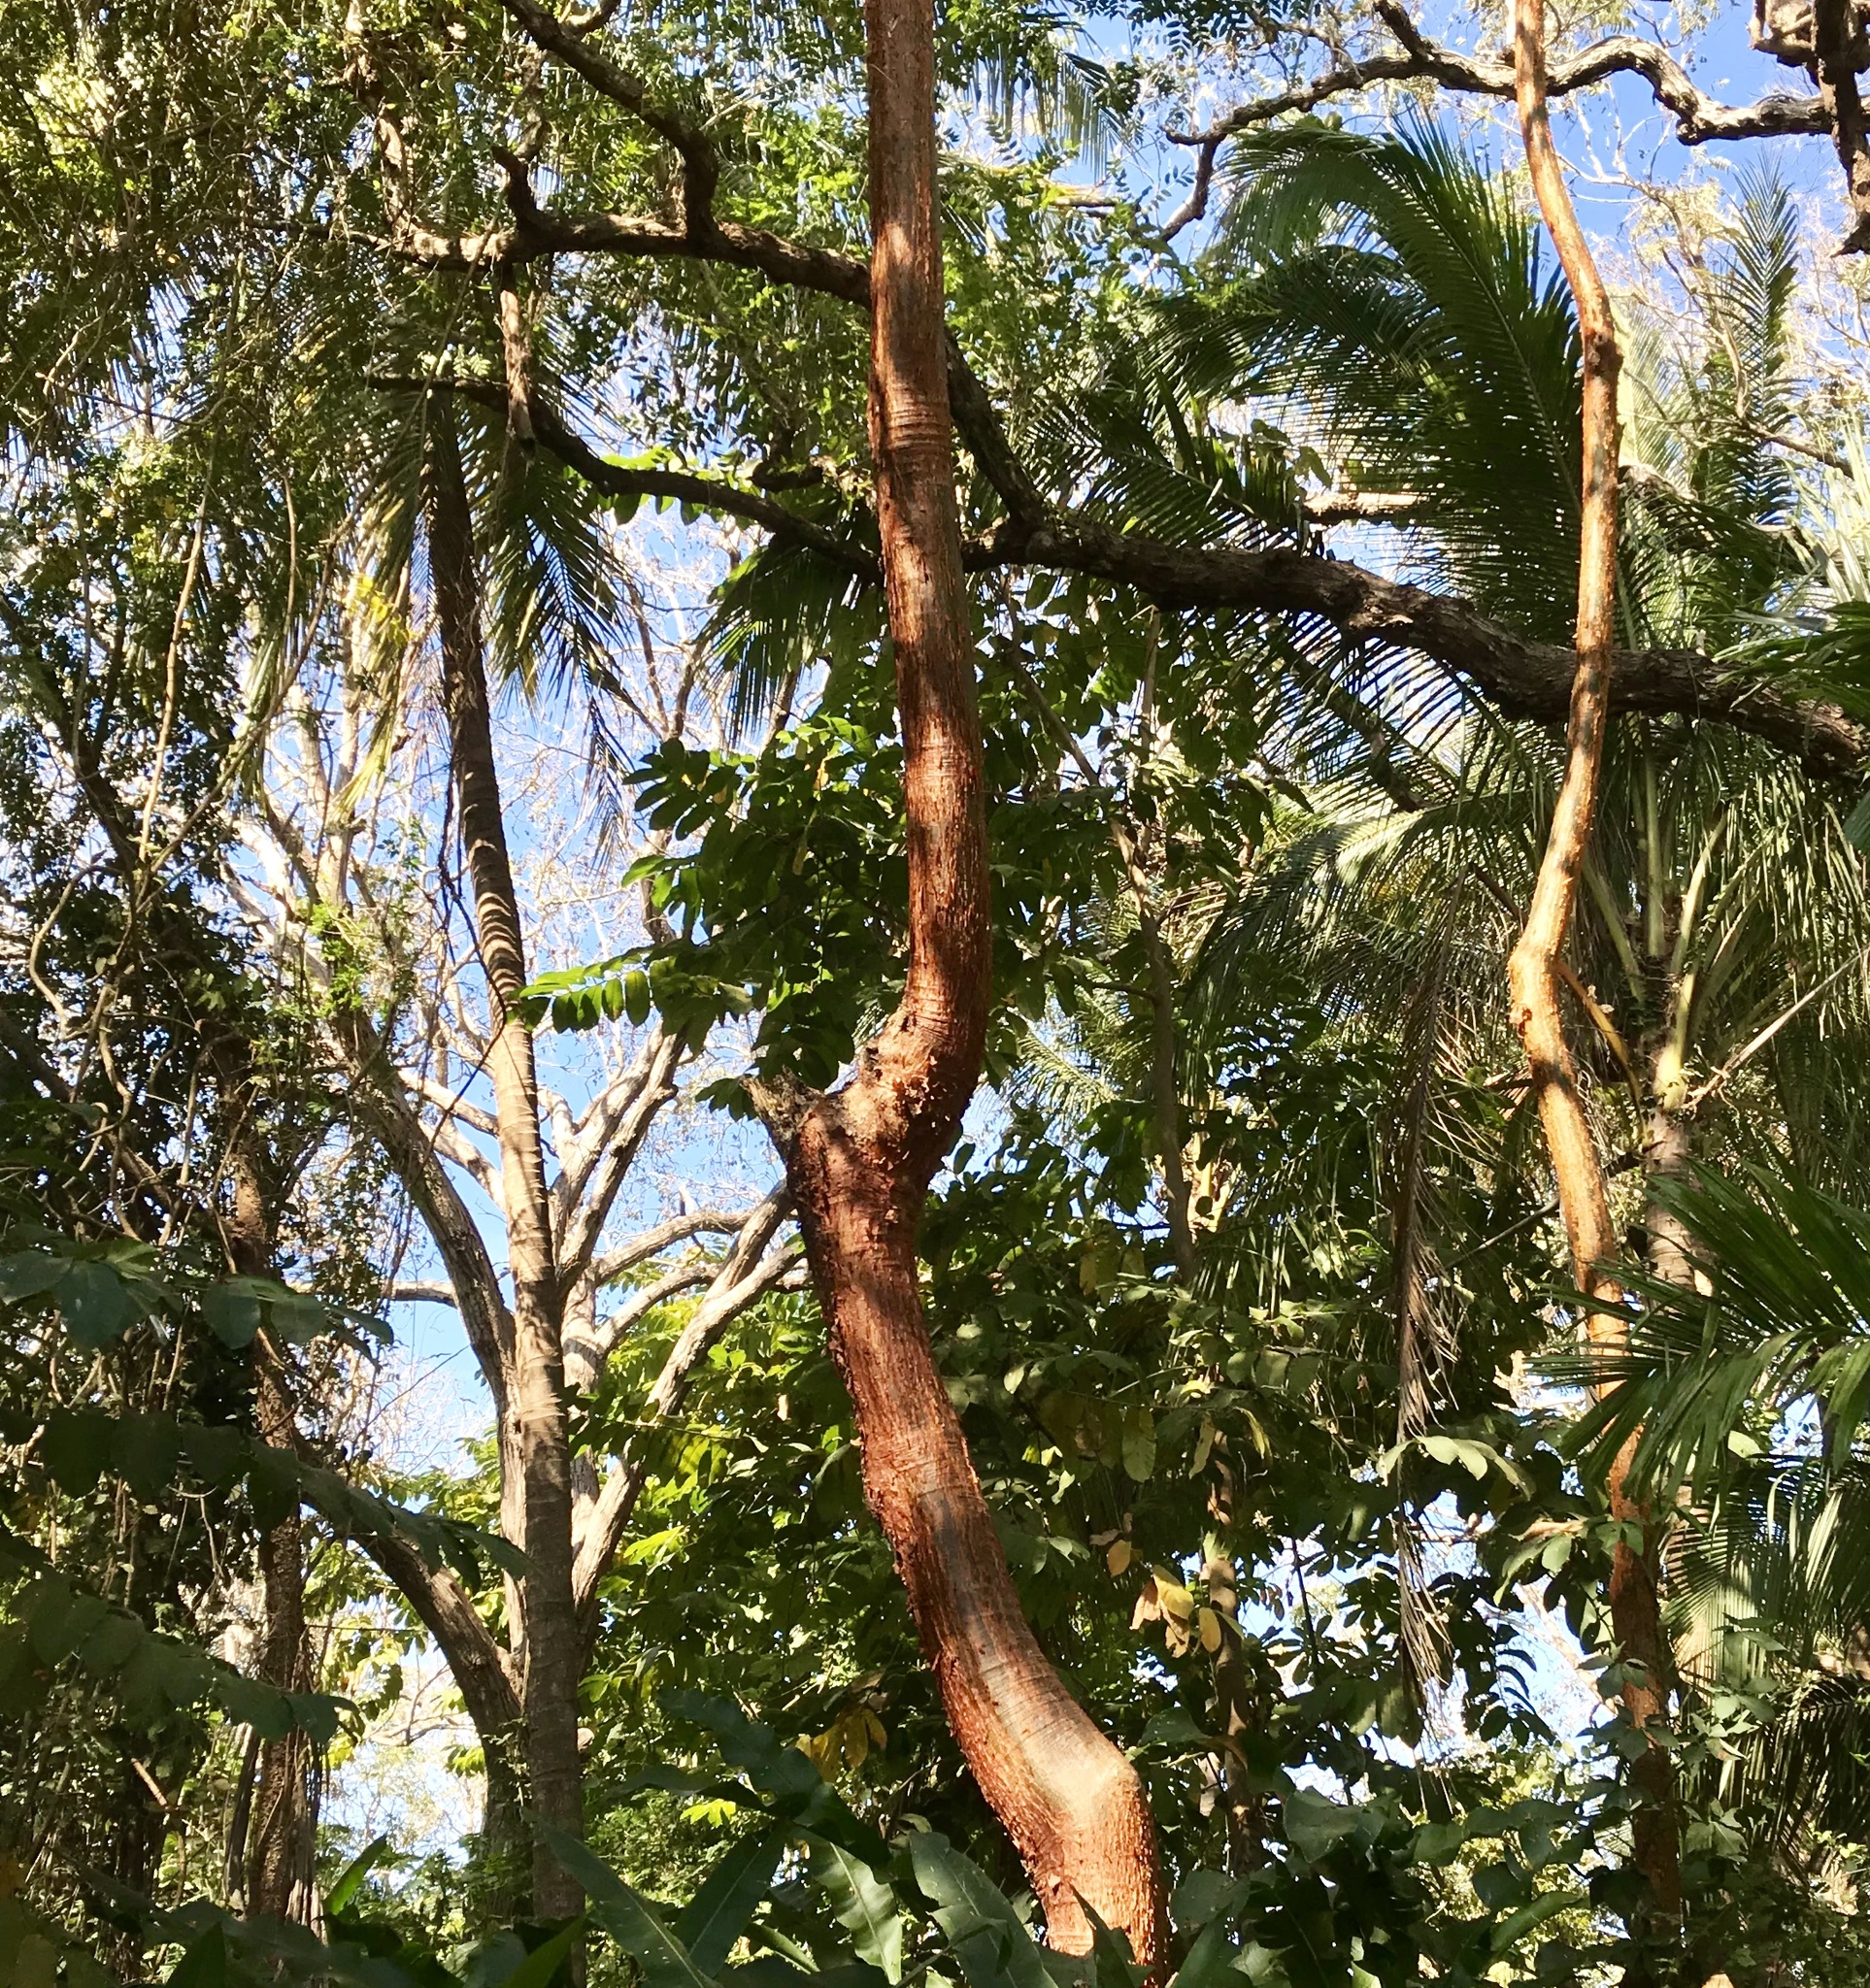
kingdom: Plantae
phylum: Tracheophyta
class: Magnoliopsida
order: Sapindales
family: Burseraceae
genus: Bursera
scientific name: Bursera simaruba
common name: Turpentine tree
